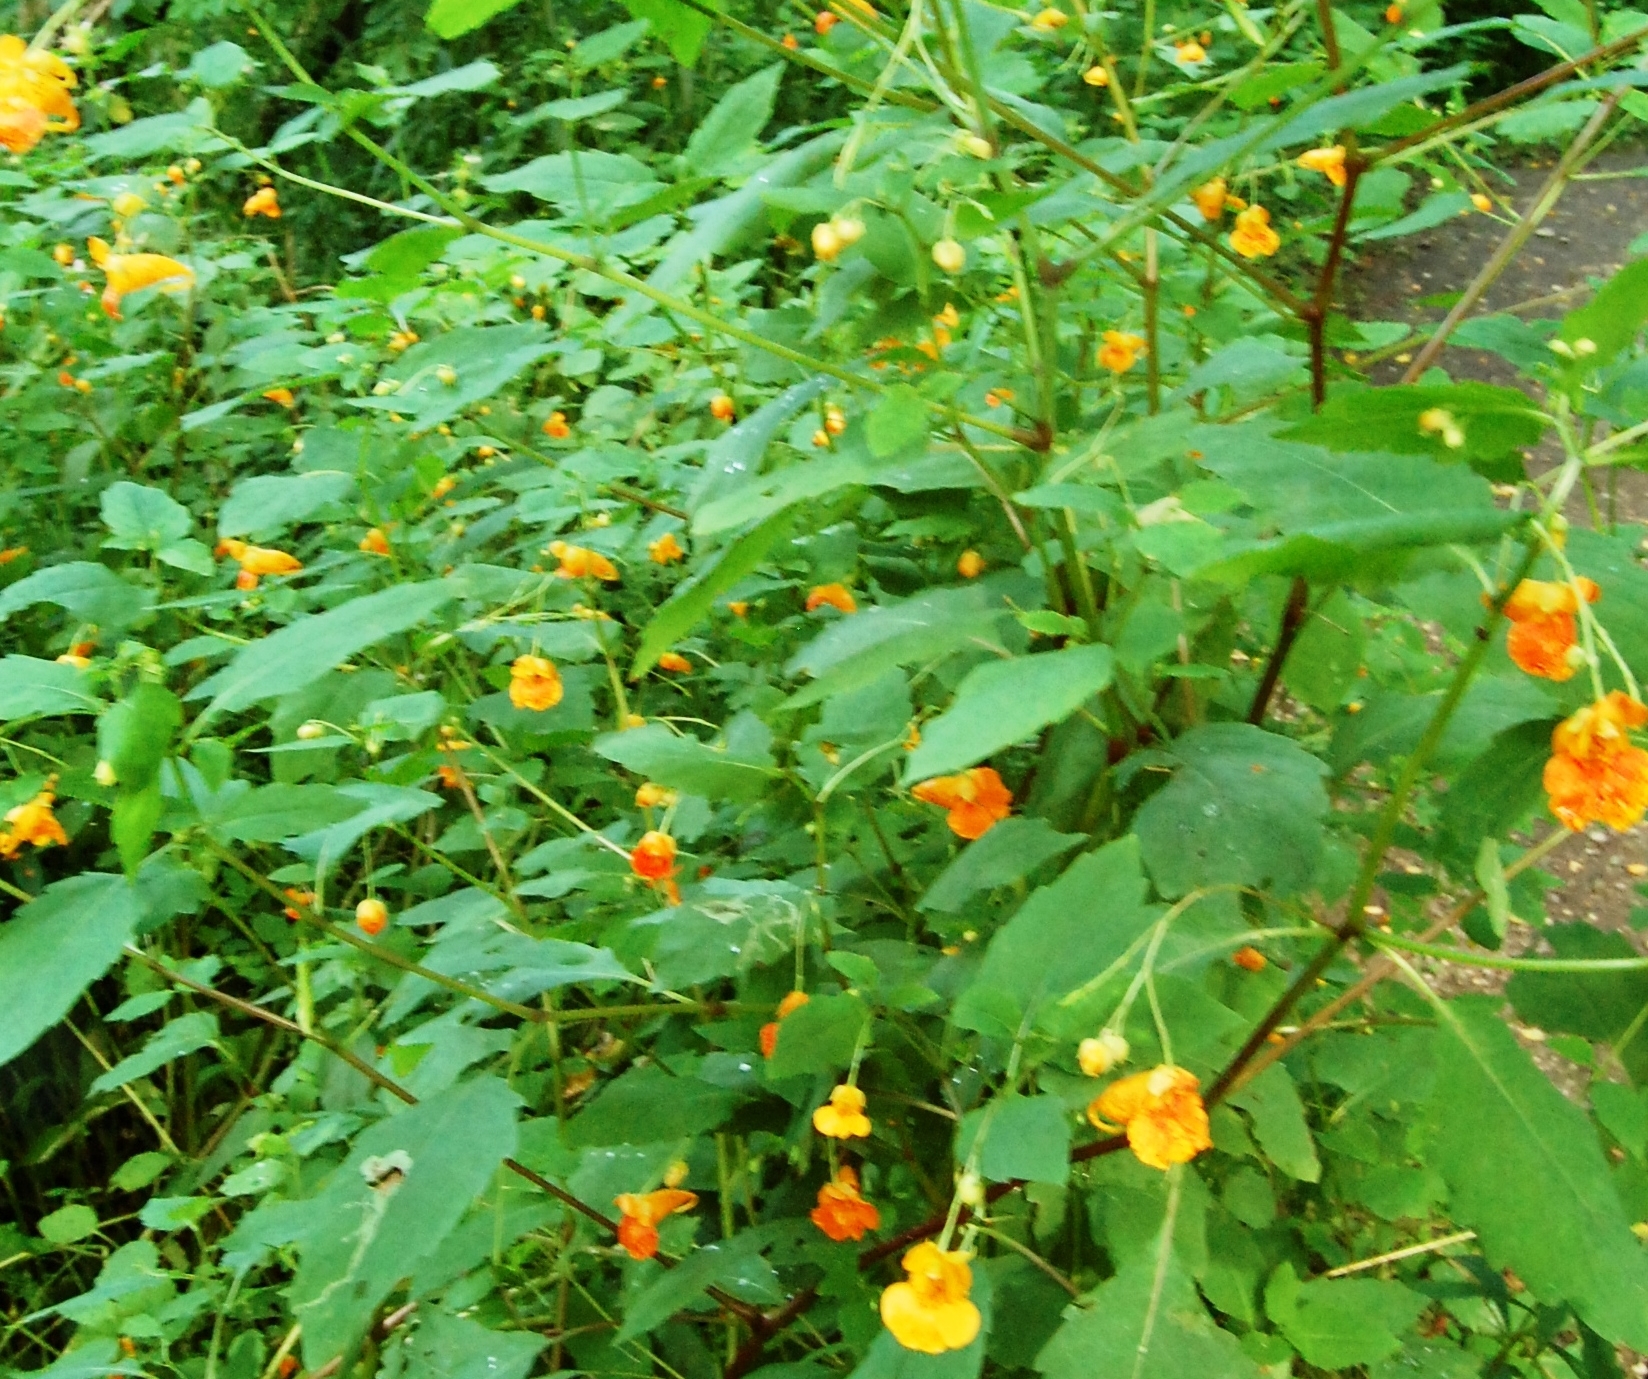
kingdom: Plantae
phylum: Tracheophyta
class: Magnoliopsida
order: Ericales
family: Balsaminaceae
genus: Impatiens
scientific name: Impatiens capensis
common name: Orange balsam
